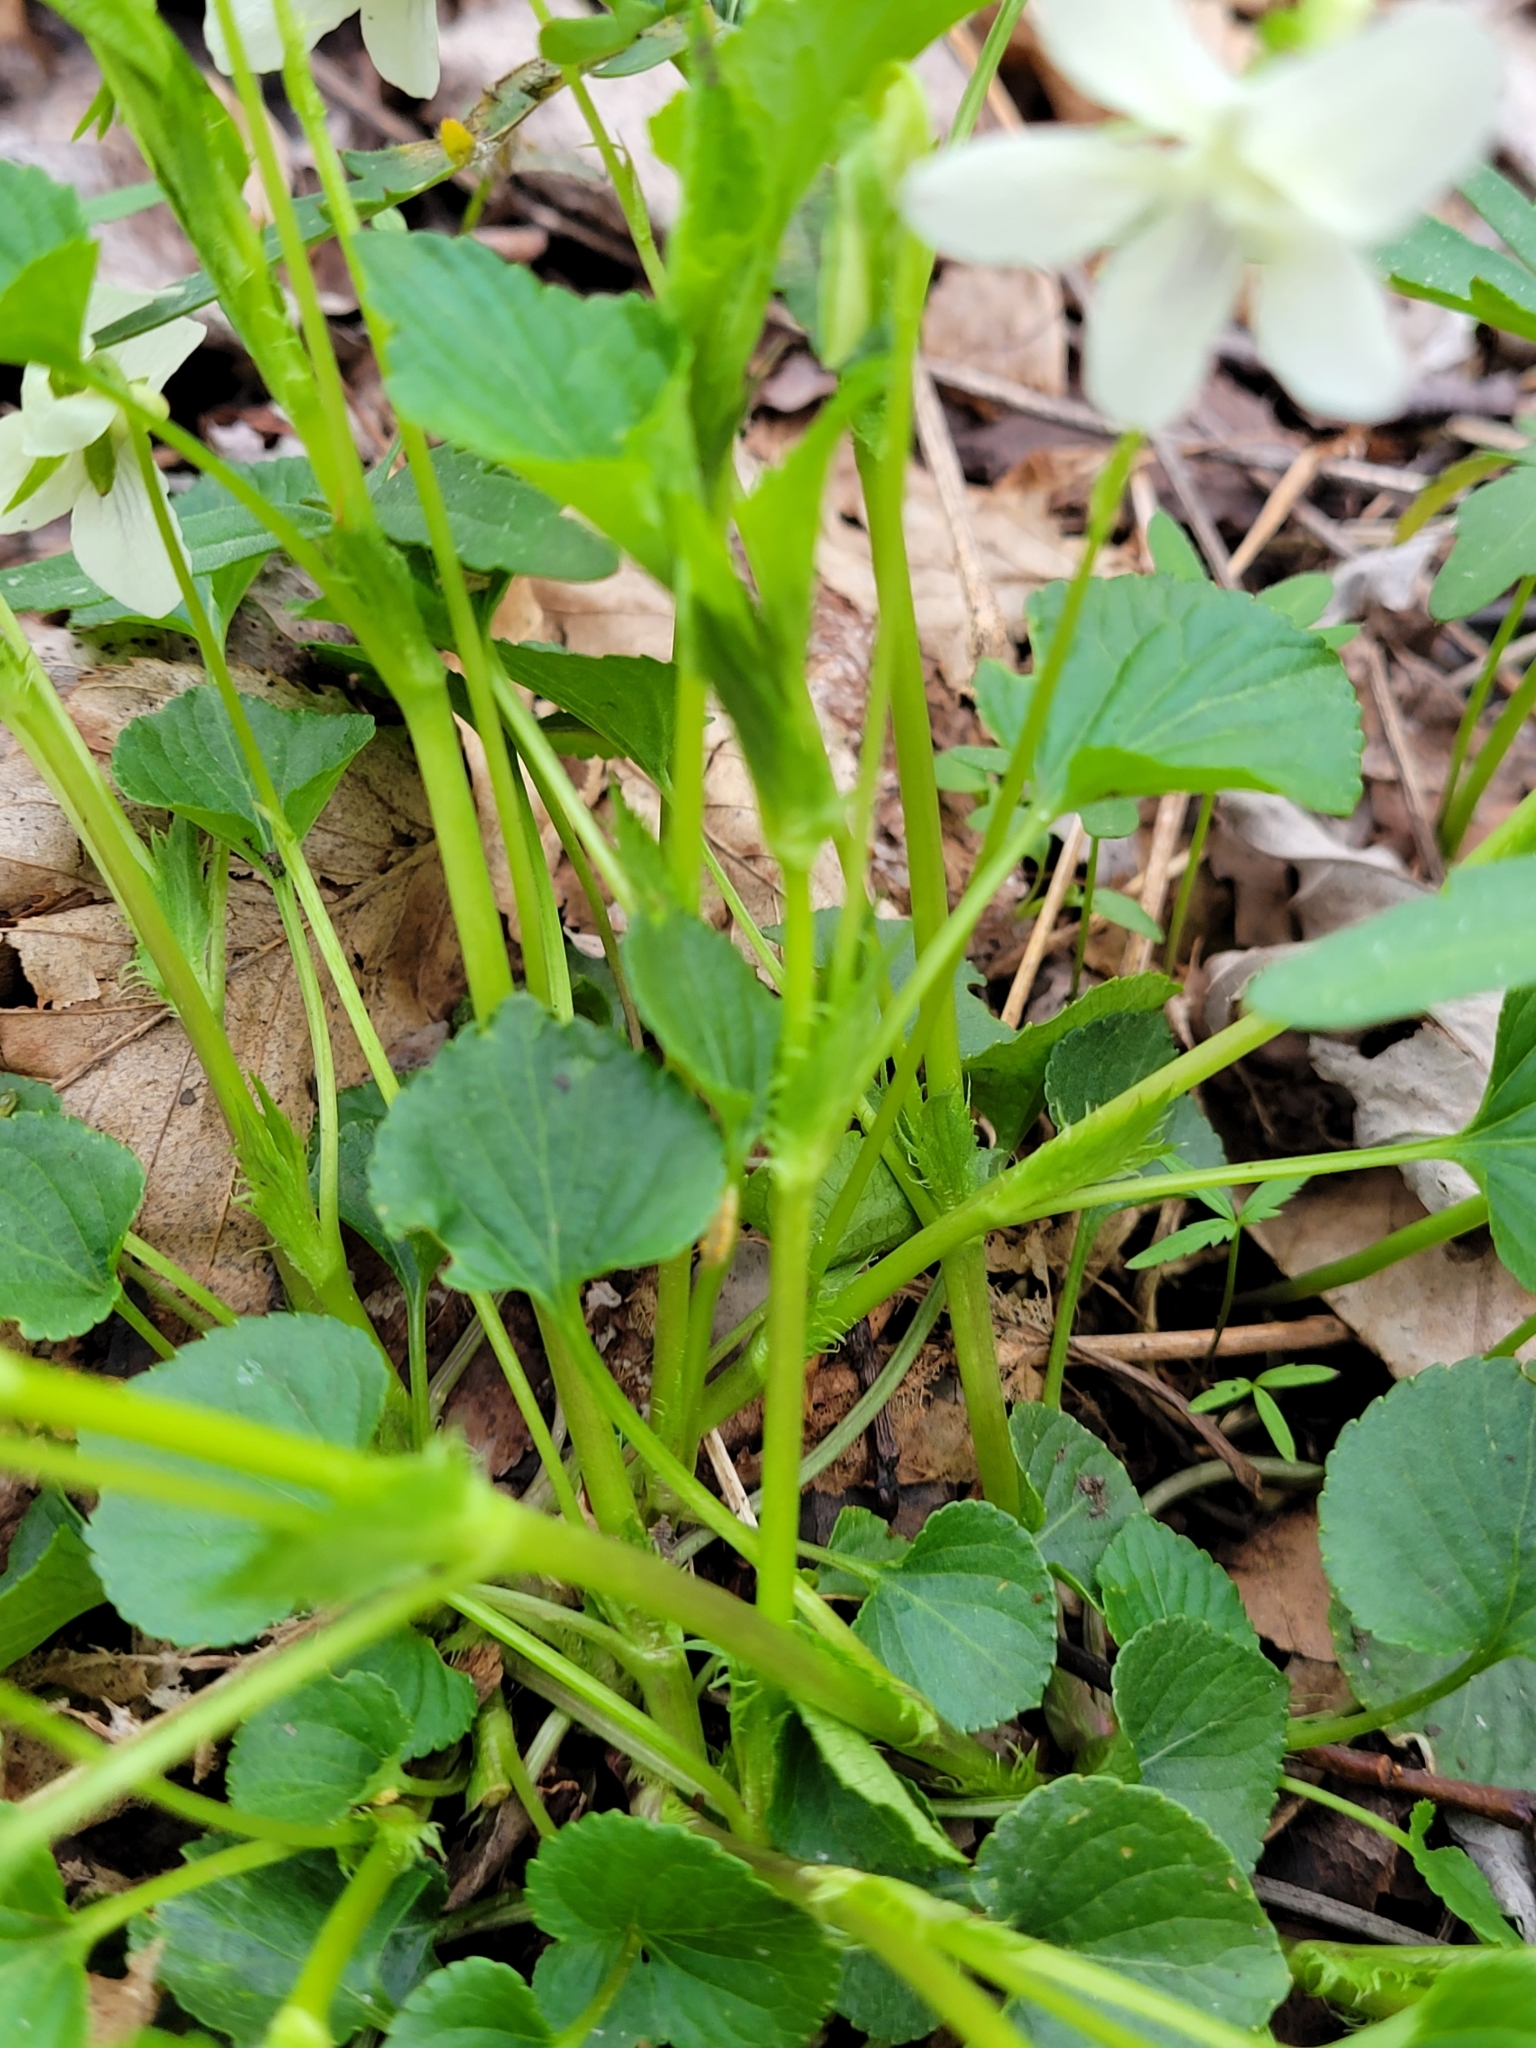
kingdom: Plantae
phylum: Tracheophyta
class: Magnoliopsida
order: Malpighiales
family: Violaceae
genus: Viola
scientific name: Viola striata
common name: Cream violet
